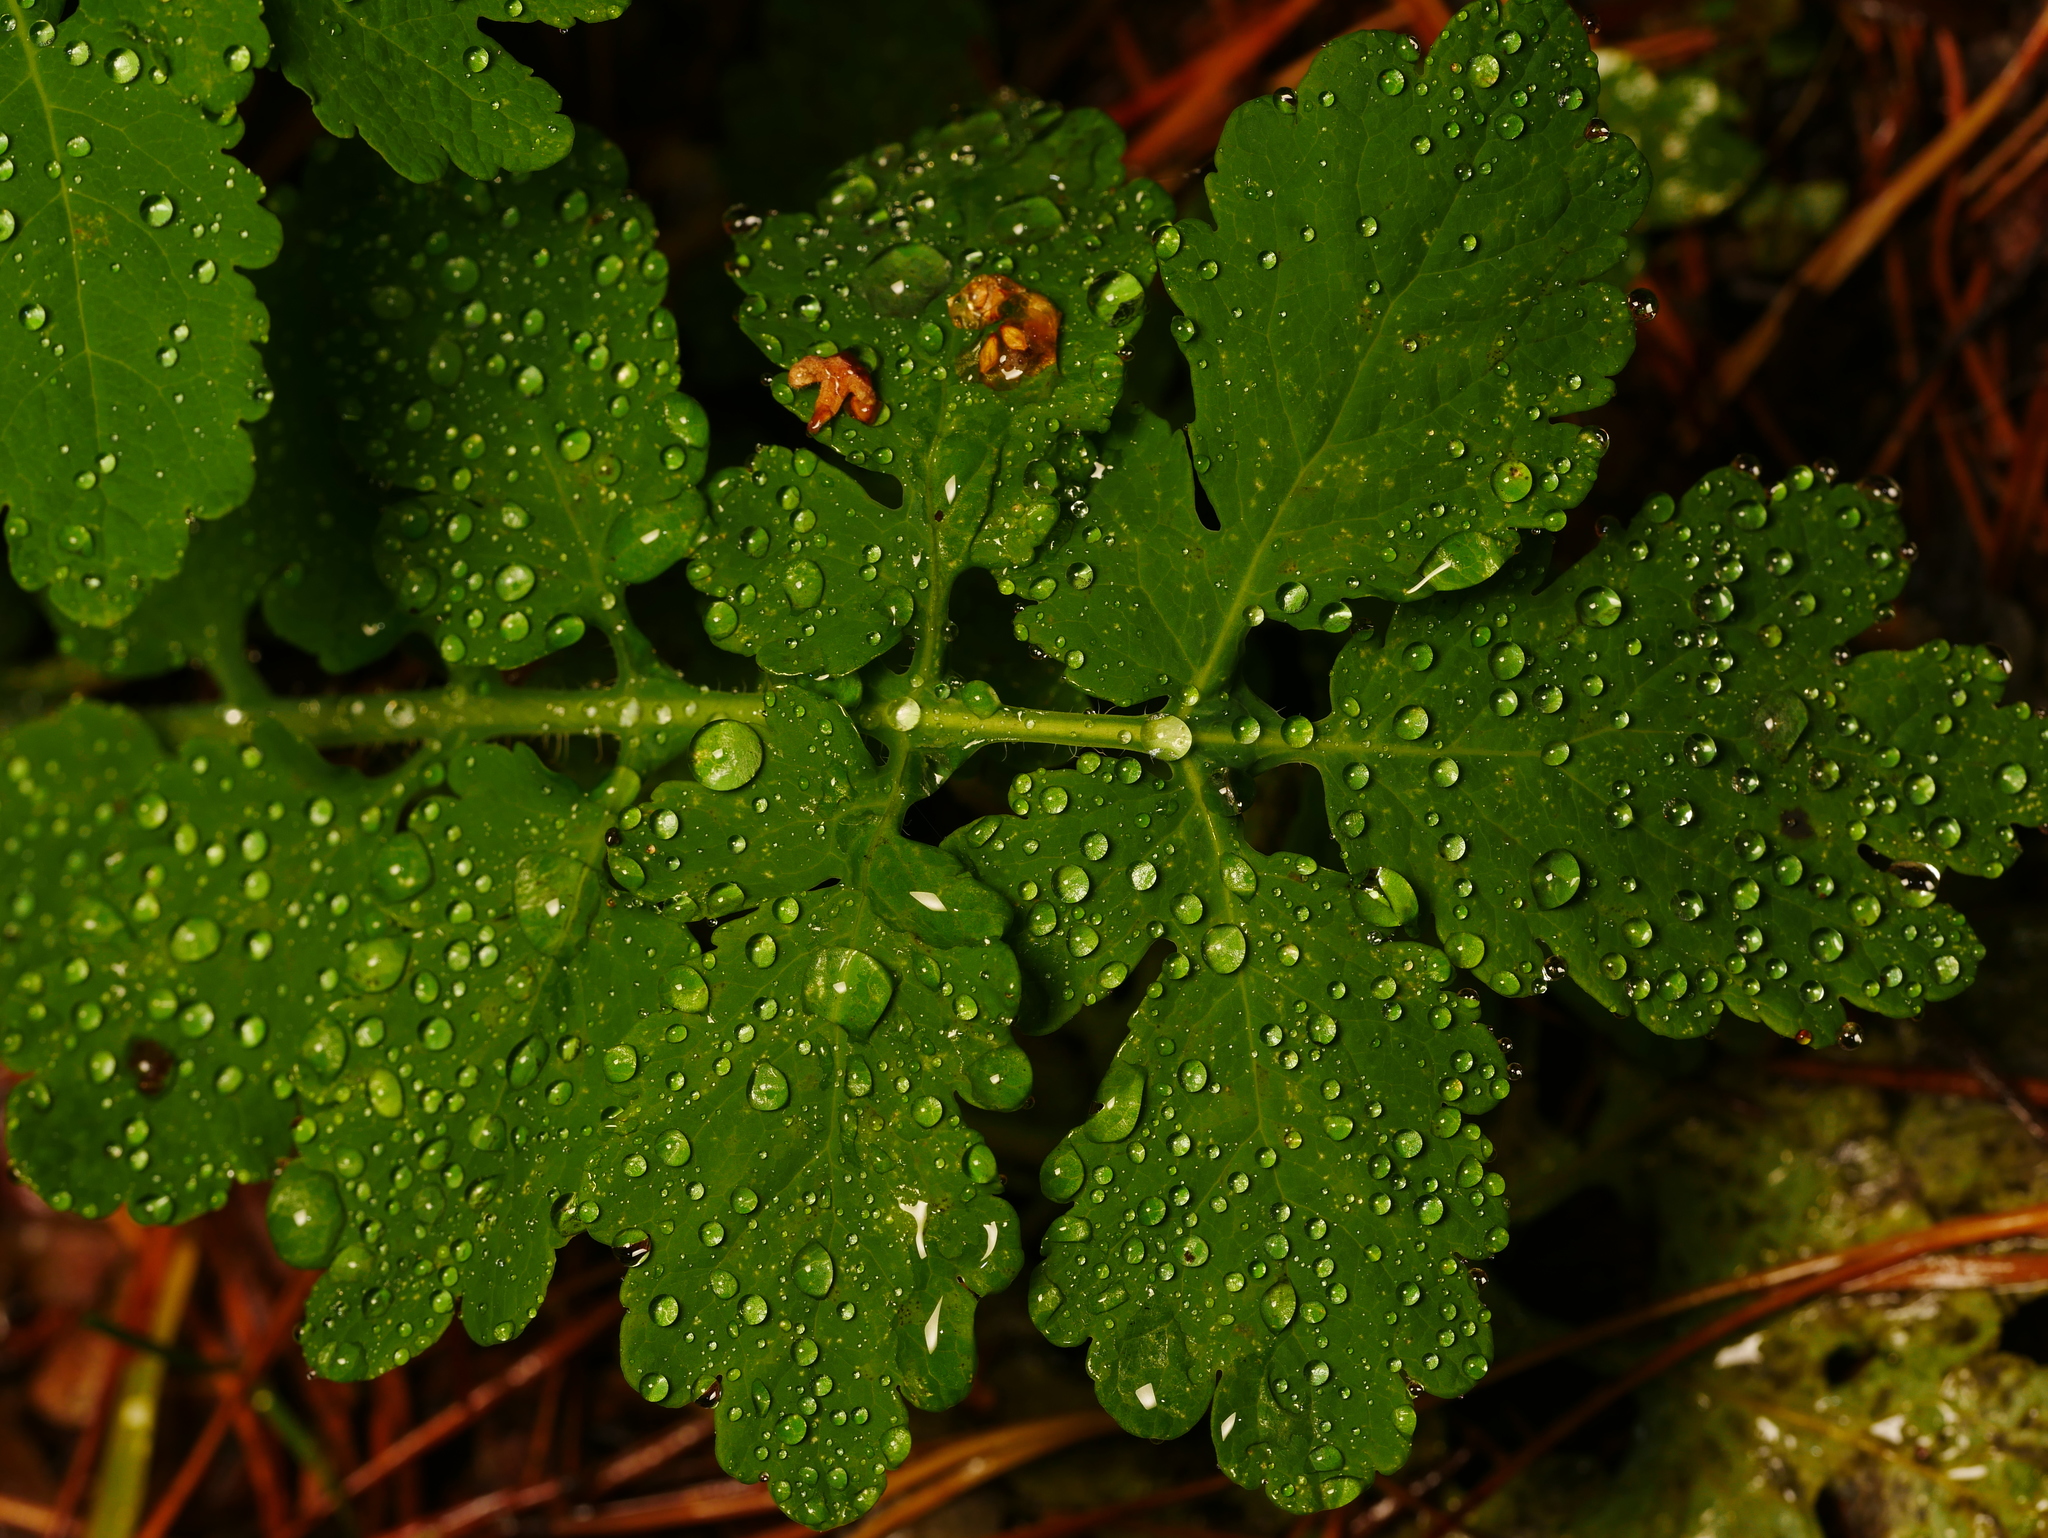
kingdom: Plantae
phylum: Tracheophyta
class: Magnoliopsida
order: Ranunculales
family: Papaveraceae
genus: Chelidonium
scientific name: Chelidonium majus
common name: Greater celandine
